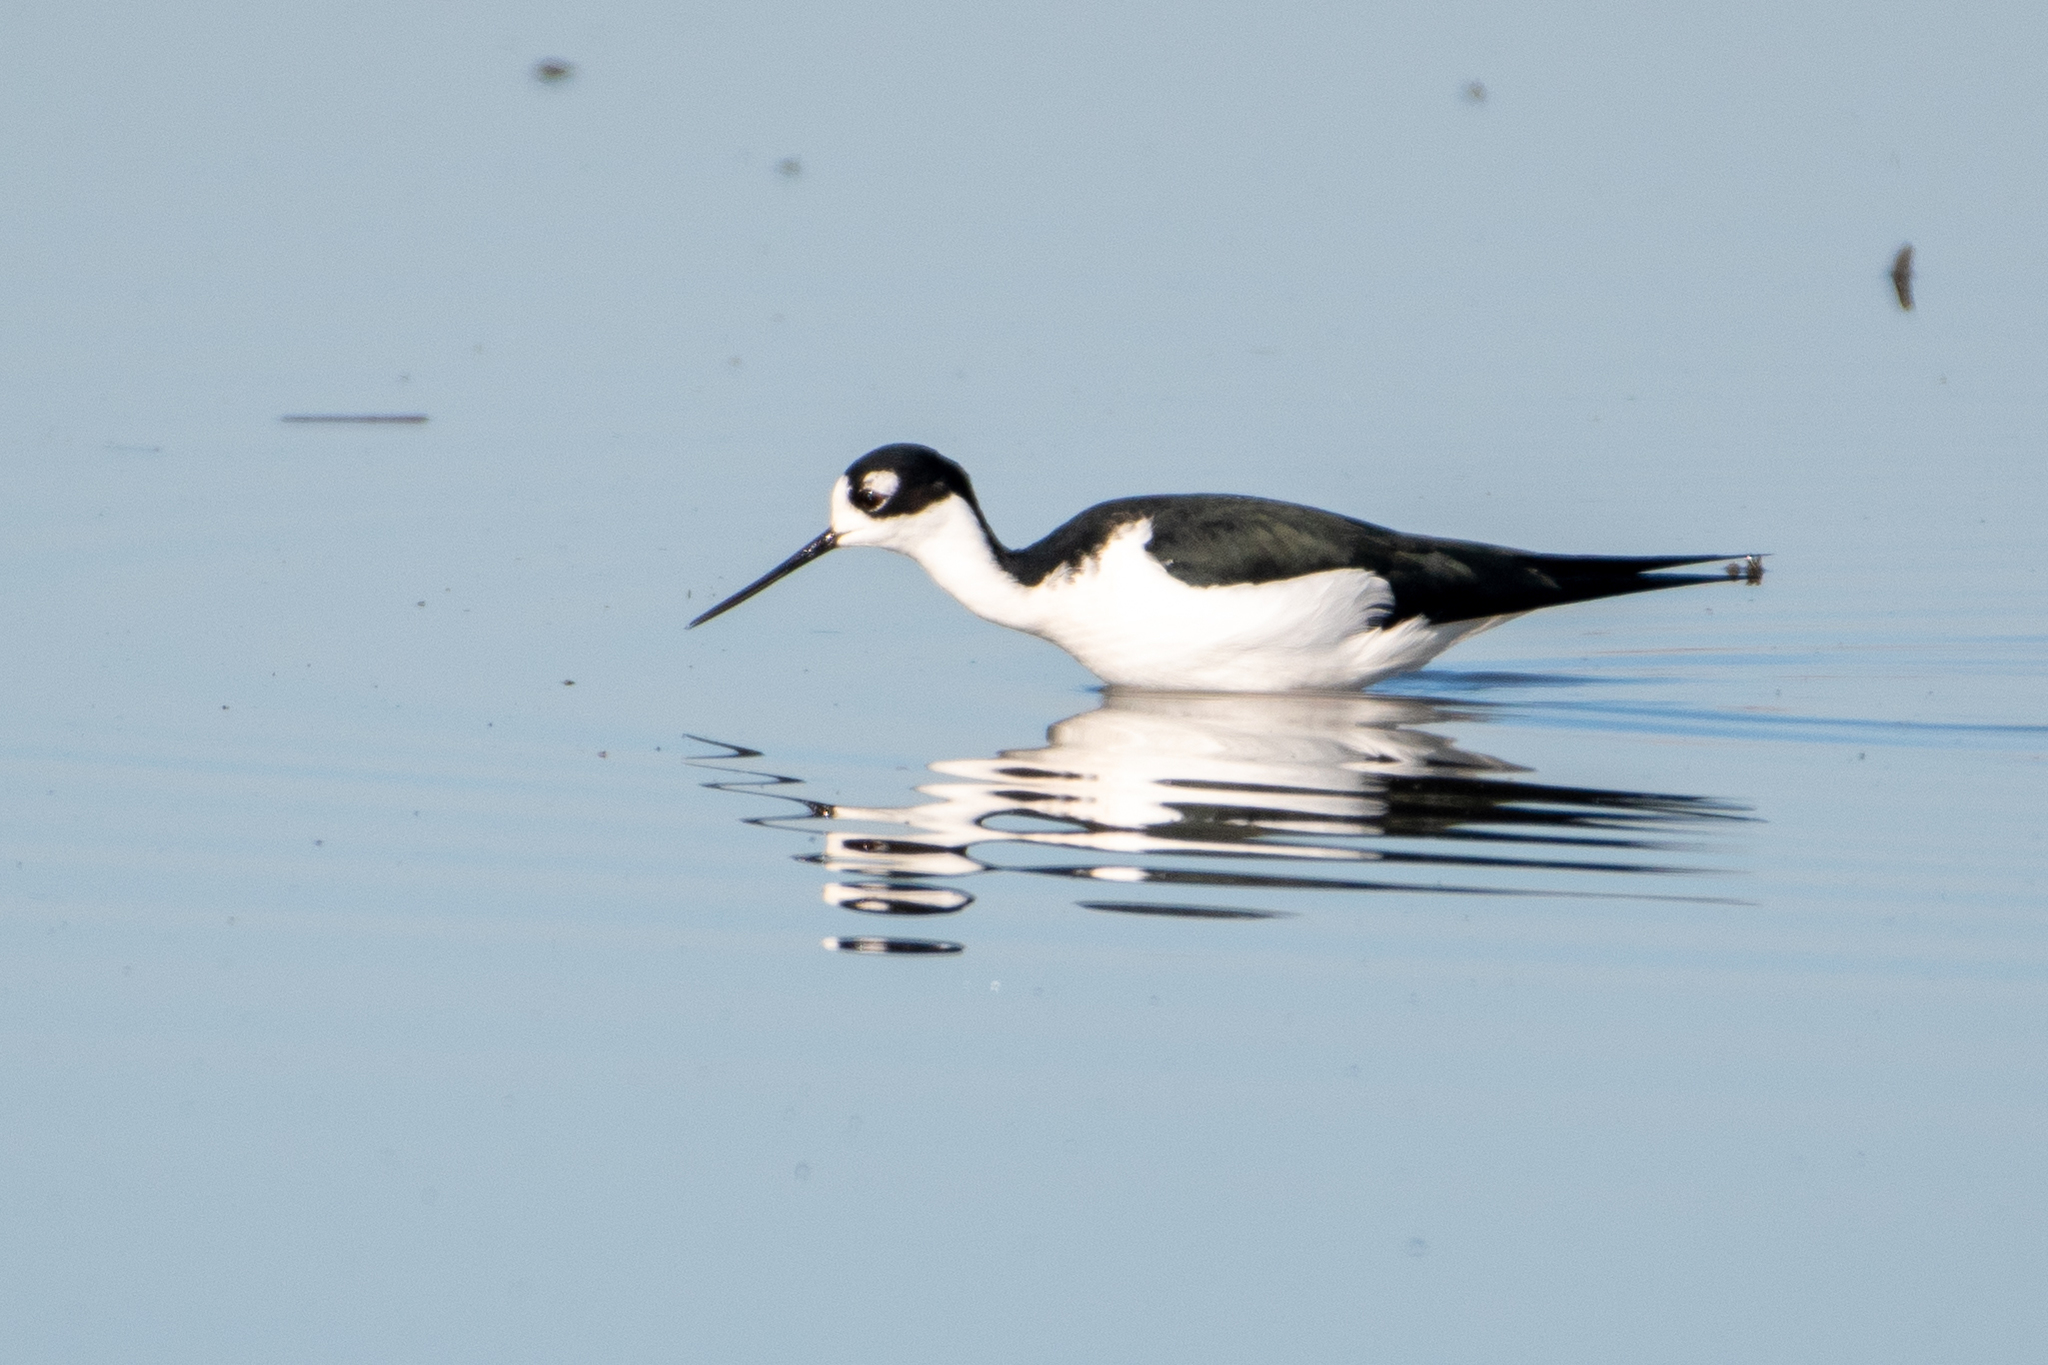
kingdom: Animalia
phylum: Chordata
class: Aves
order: Charadriiformes
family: Recurvirostridae
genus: Himantopus
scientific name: Himantopus mexicanus
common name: Black-necked stilt
